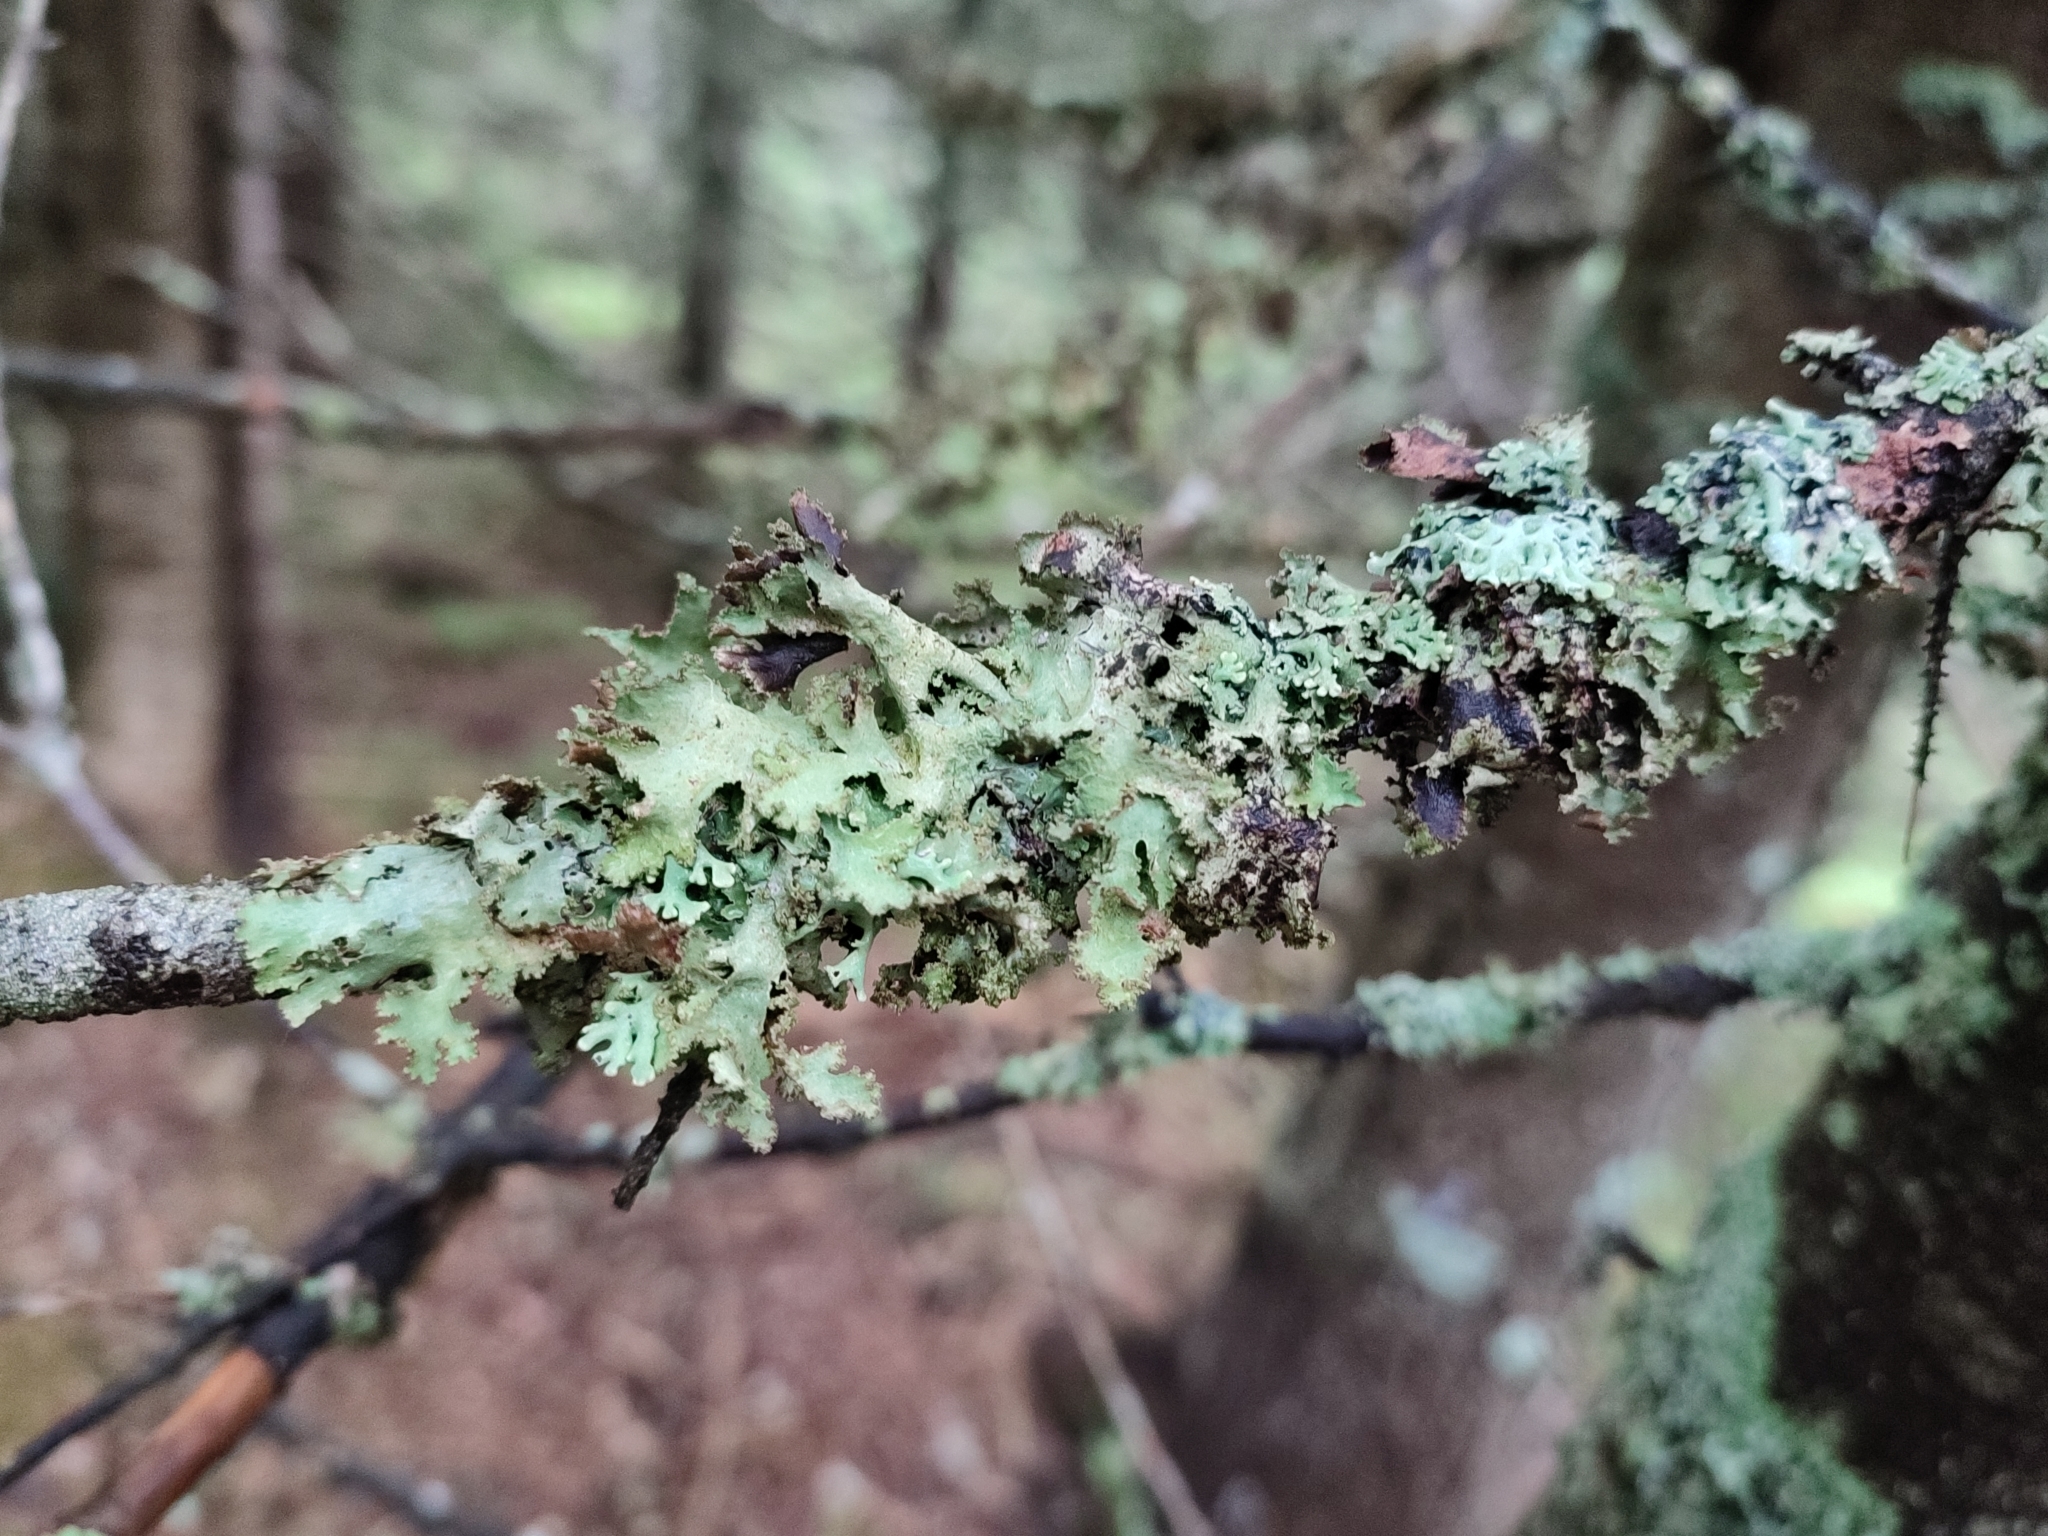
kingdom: Fungi
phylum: Ascomycota
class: Lecanoromycetes
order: Lecanorales
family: Parmeliaceae
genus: Platismatia
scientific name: Platismatia glauca
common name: Varied rag lichen
